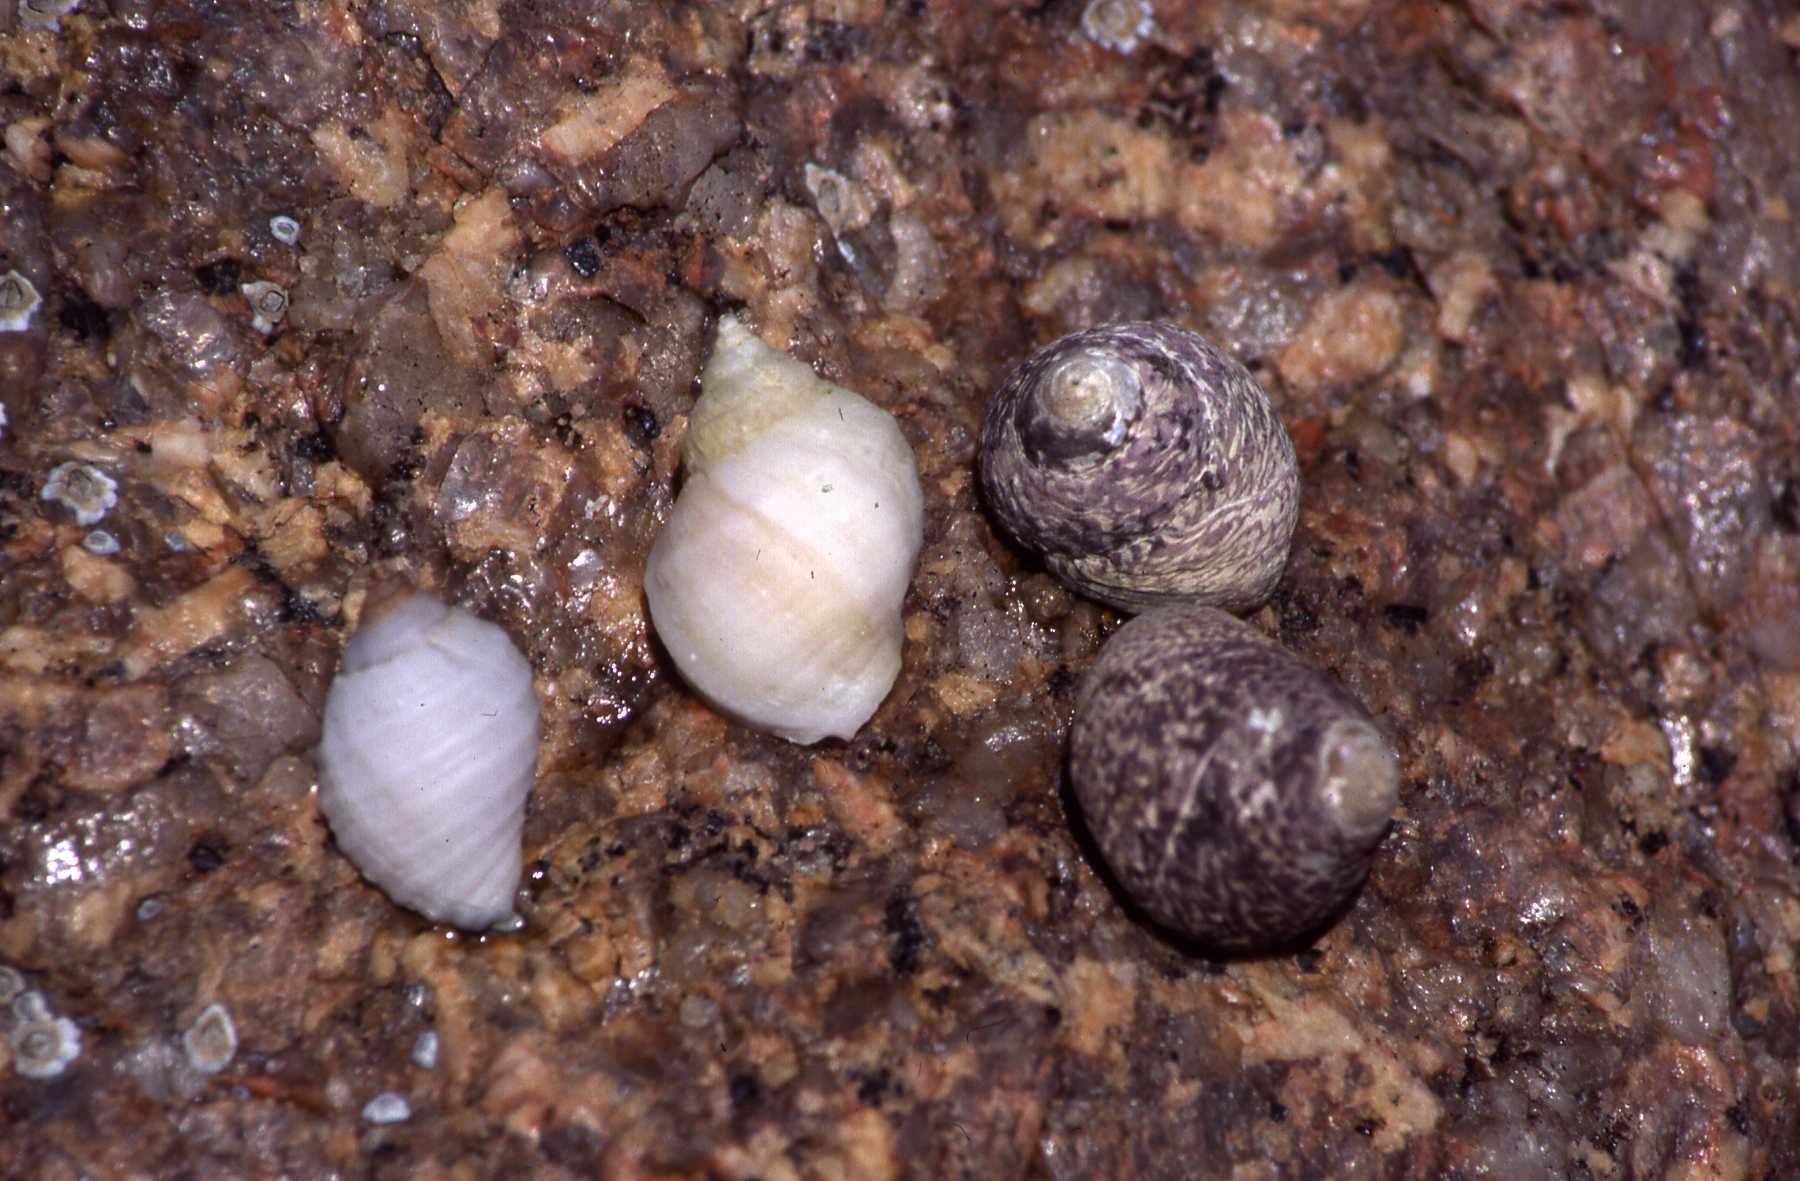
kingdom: Animalia
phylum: Mollusca
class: Gastropoda
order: Neogastropoda
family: Muricidae
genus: Nucella
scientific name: Nucella lapillus
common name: Dog whelk
